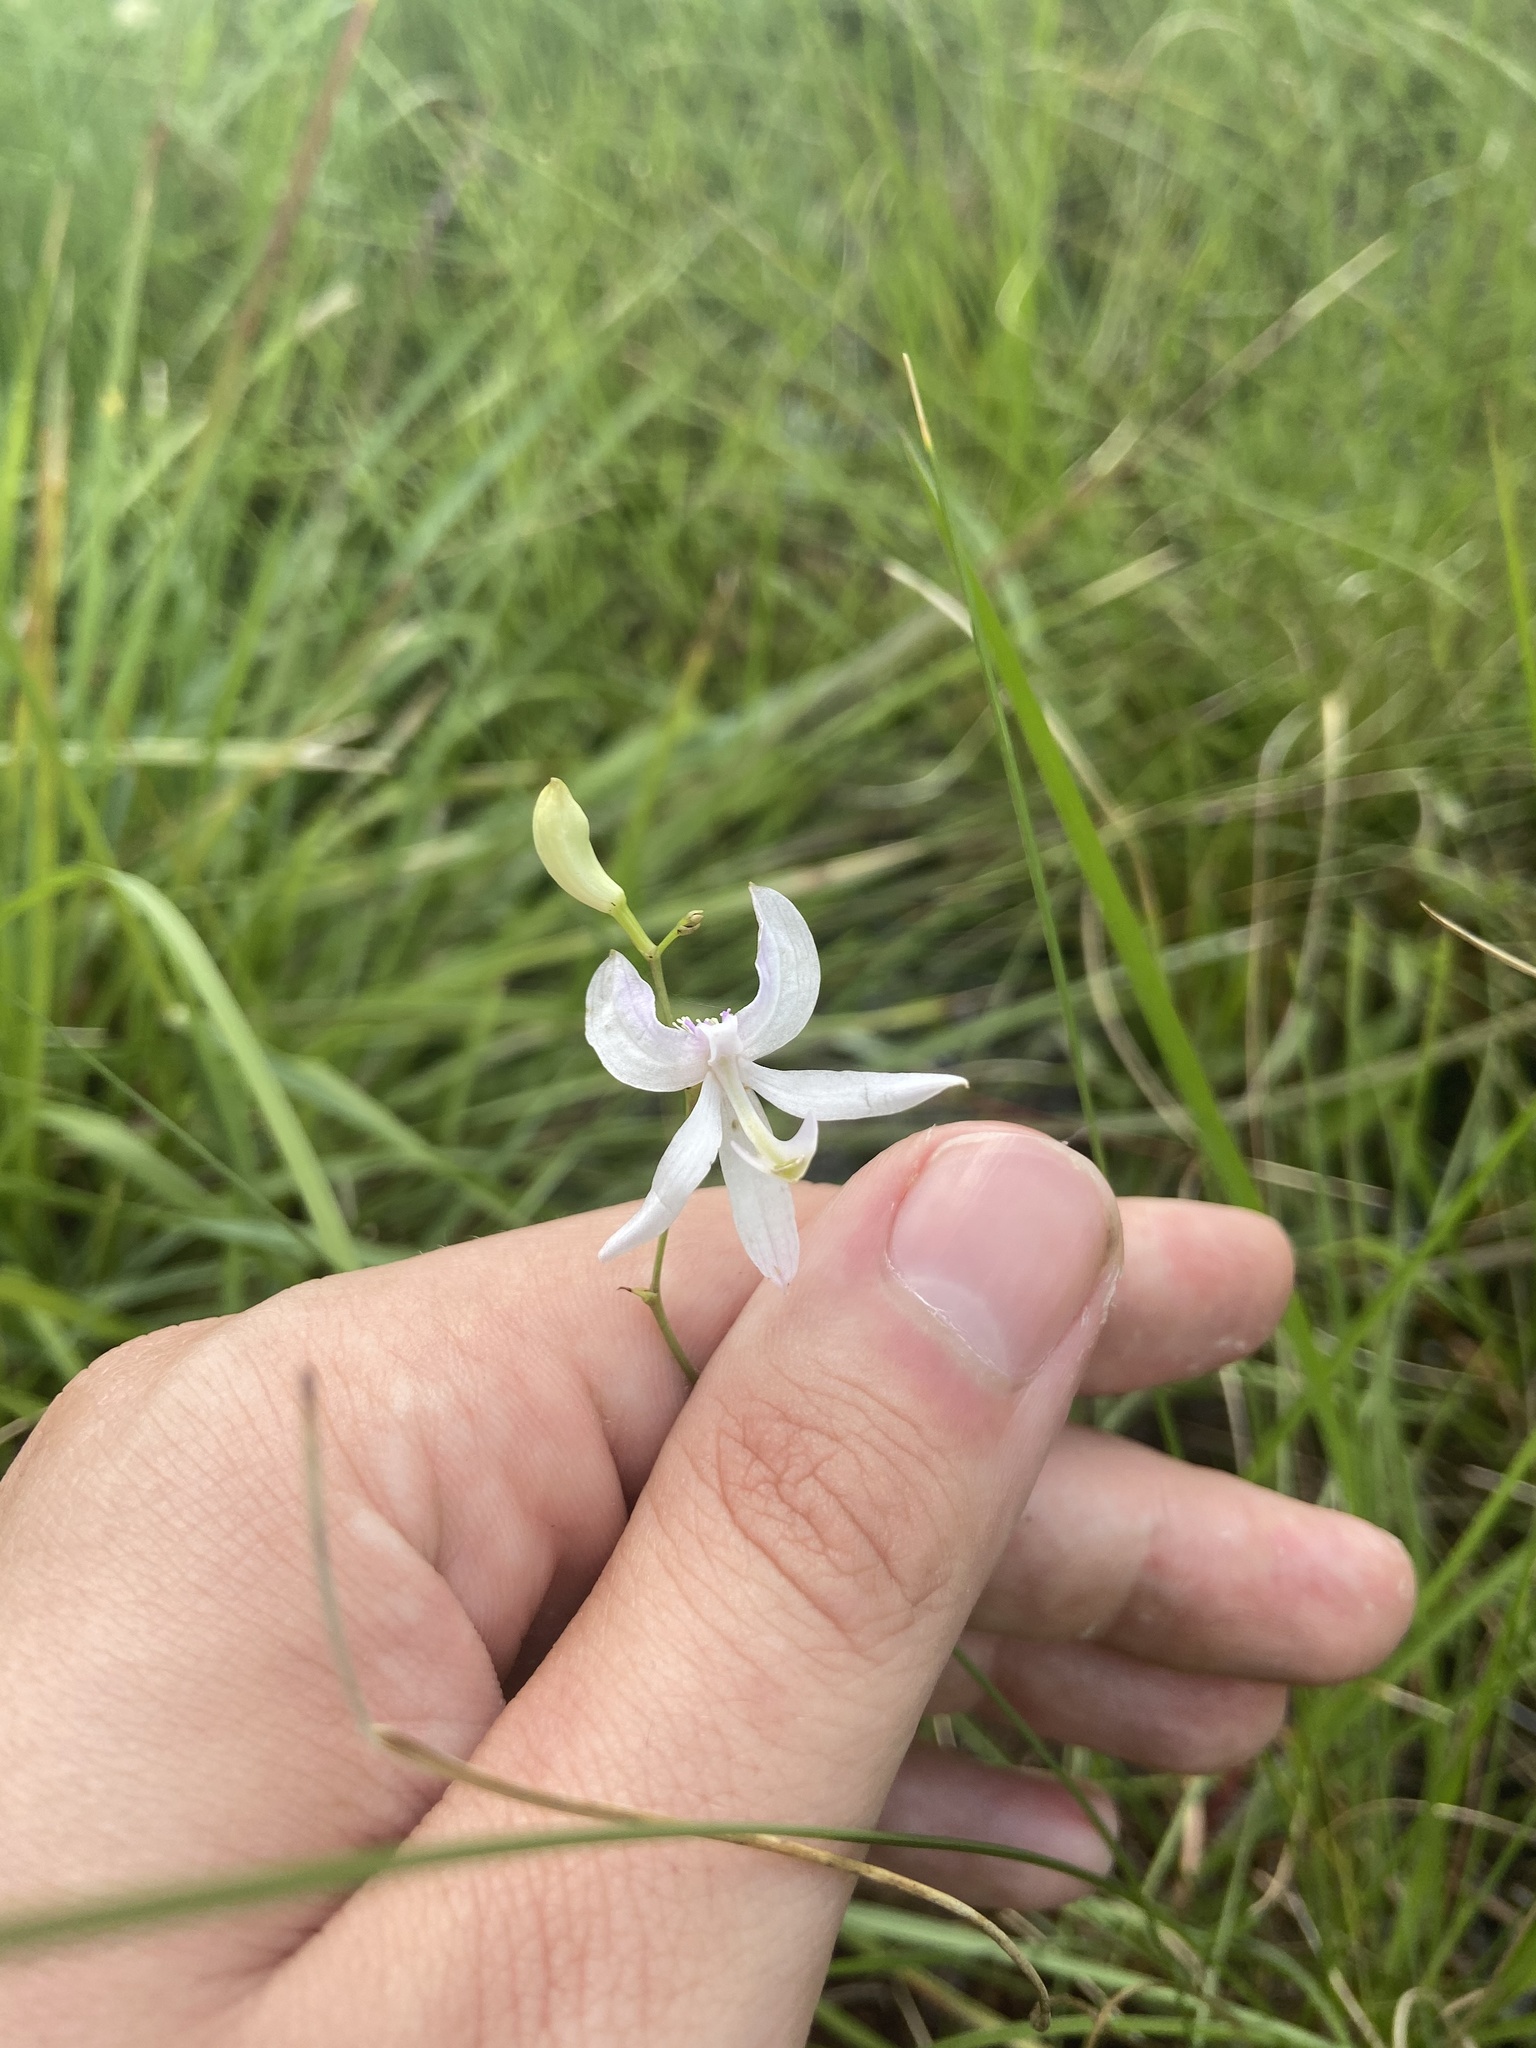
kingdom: Plantae
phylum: Tracheophyta
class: Liliopsida
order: Asparagales
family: Orchidaceae
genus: Calopogon
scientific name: Calopogon pallidus
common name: Pale grasspink
